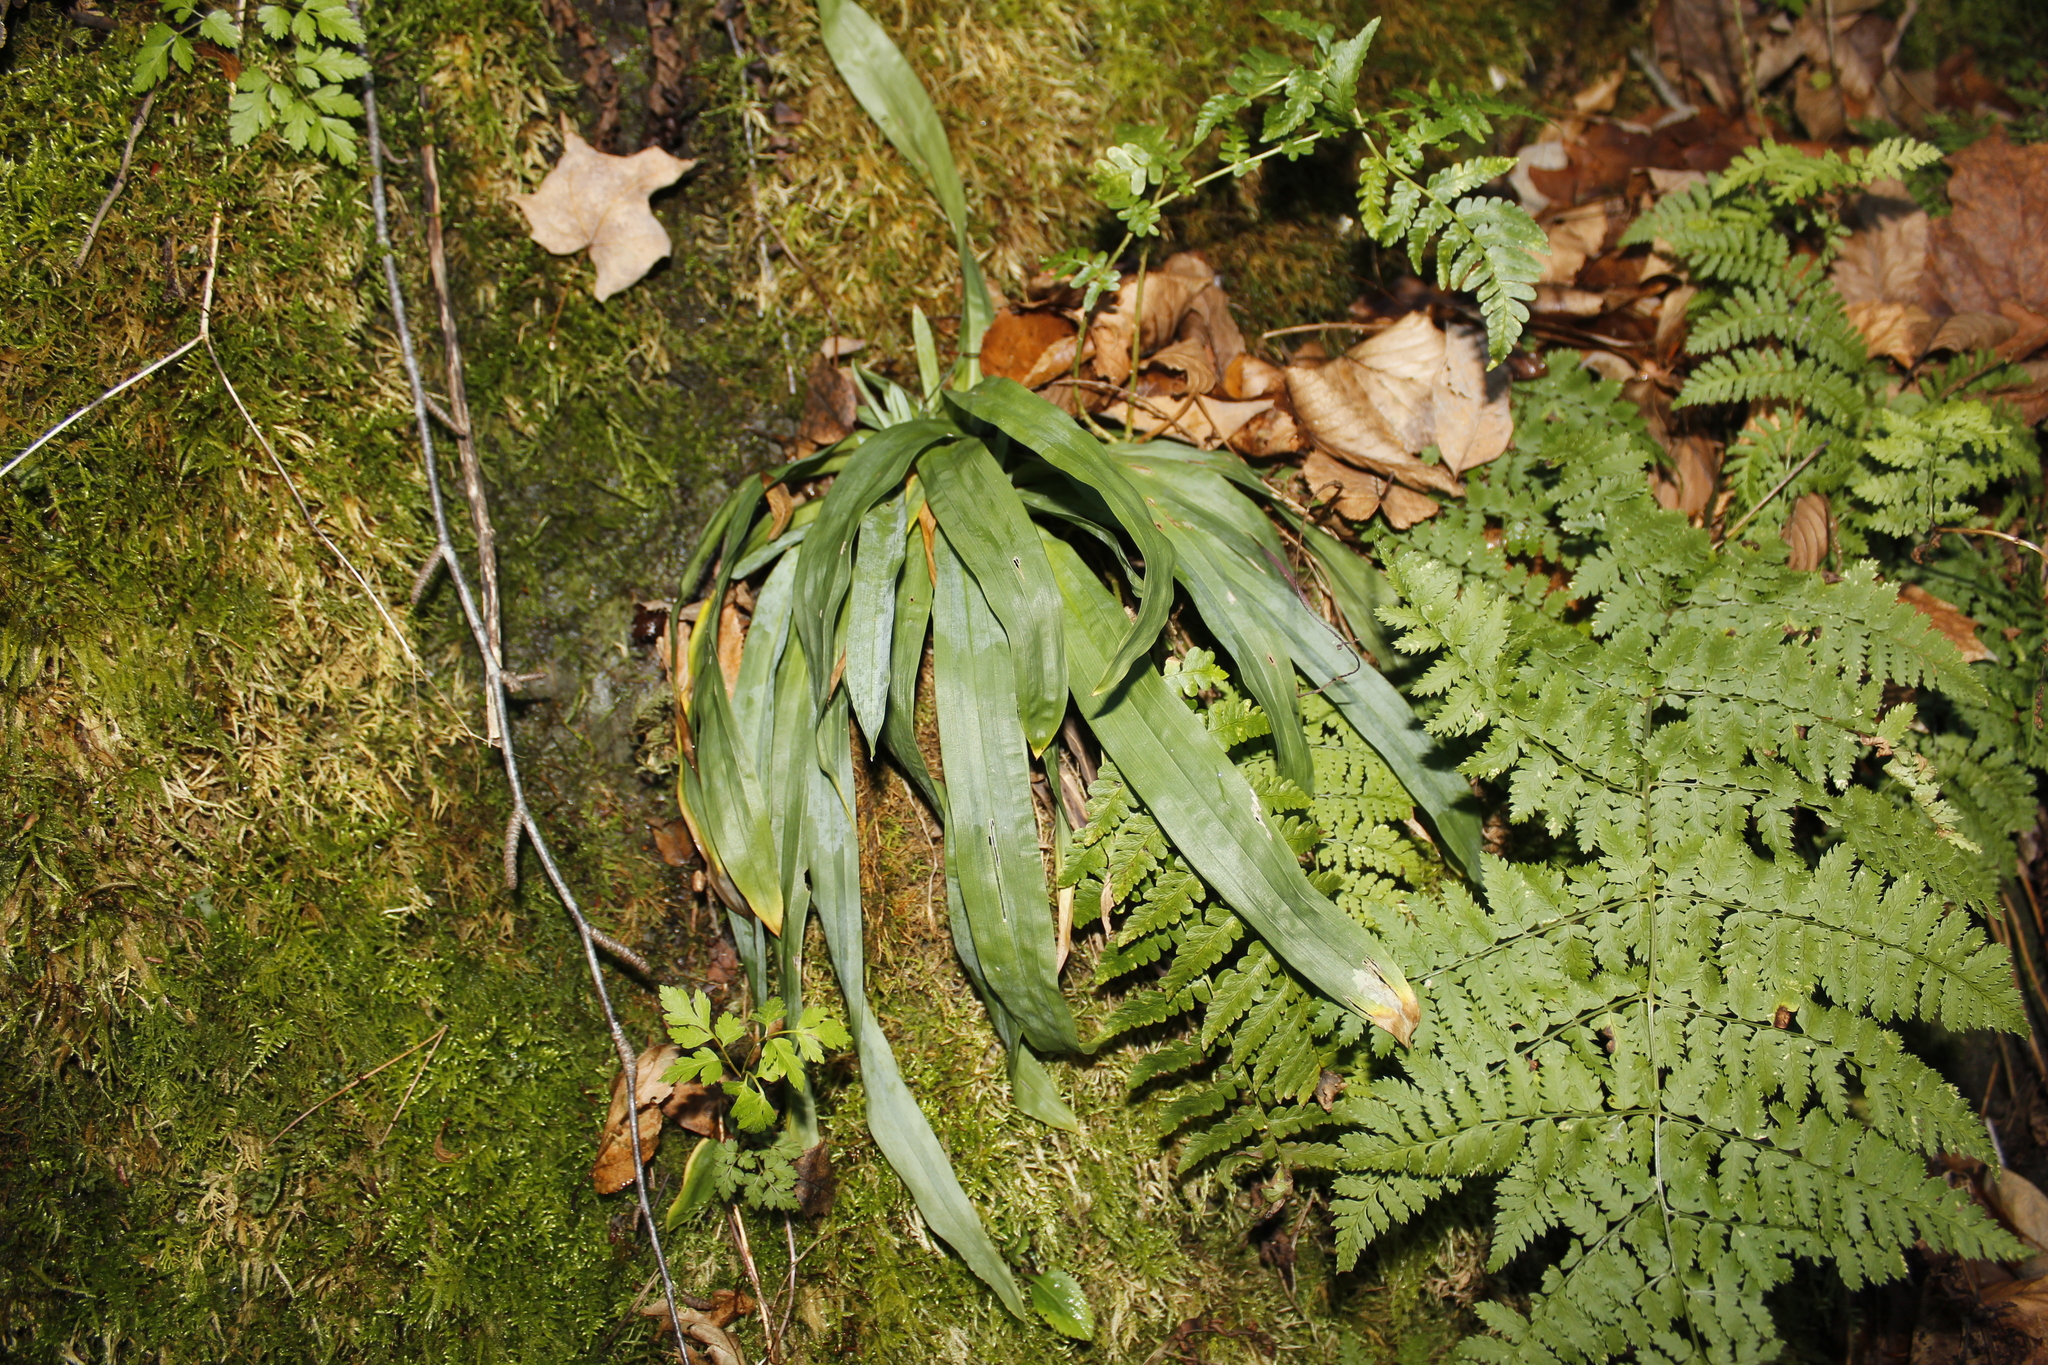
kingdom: Plantae
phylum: Tracheophyta
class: Liliopsida
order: Poales
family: Cyperaceae
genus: Carex
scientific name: Carex platyphylla
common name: Broad-leaved sedge
